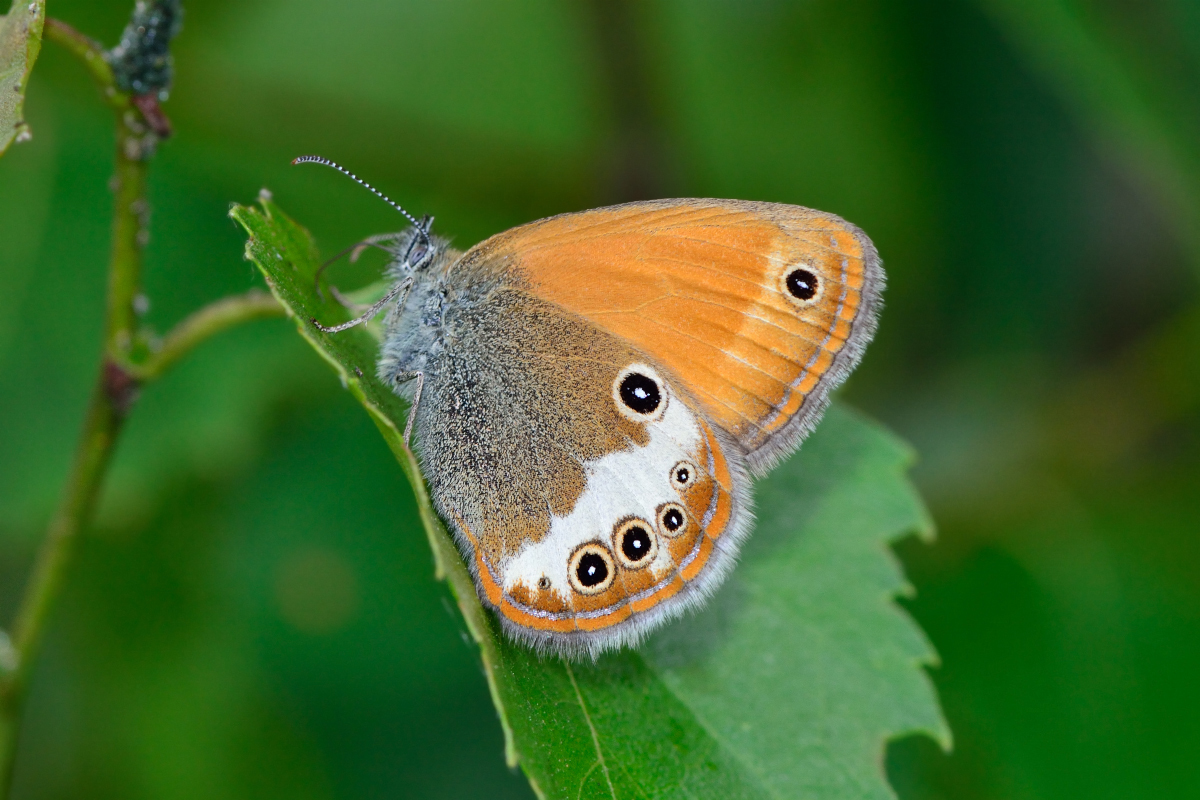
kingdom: Animalia
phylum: Arthropoda
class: Insecta
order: Lepidoptera
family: Nymphalidae
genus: Coenonympha
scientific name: Coenonympha arcania
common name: Pearly heath
